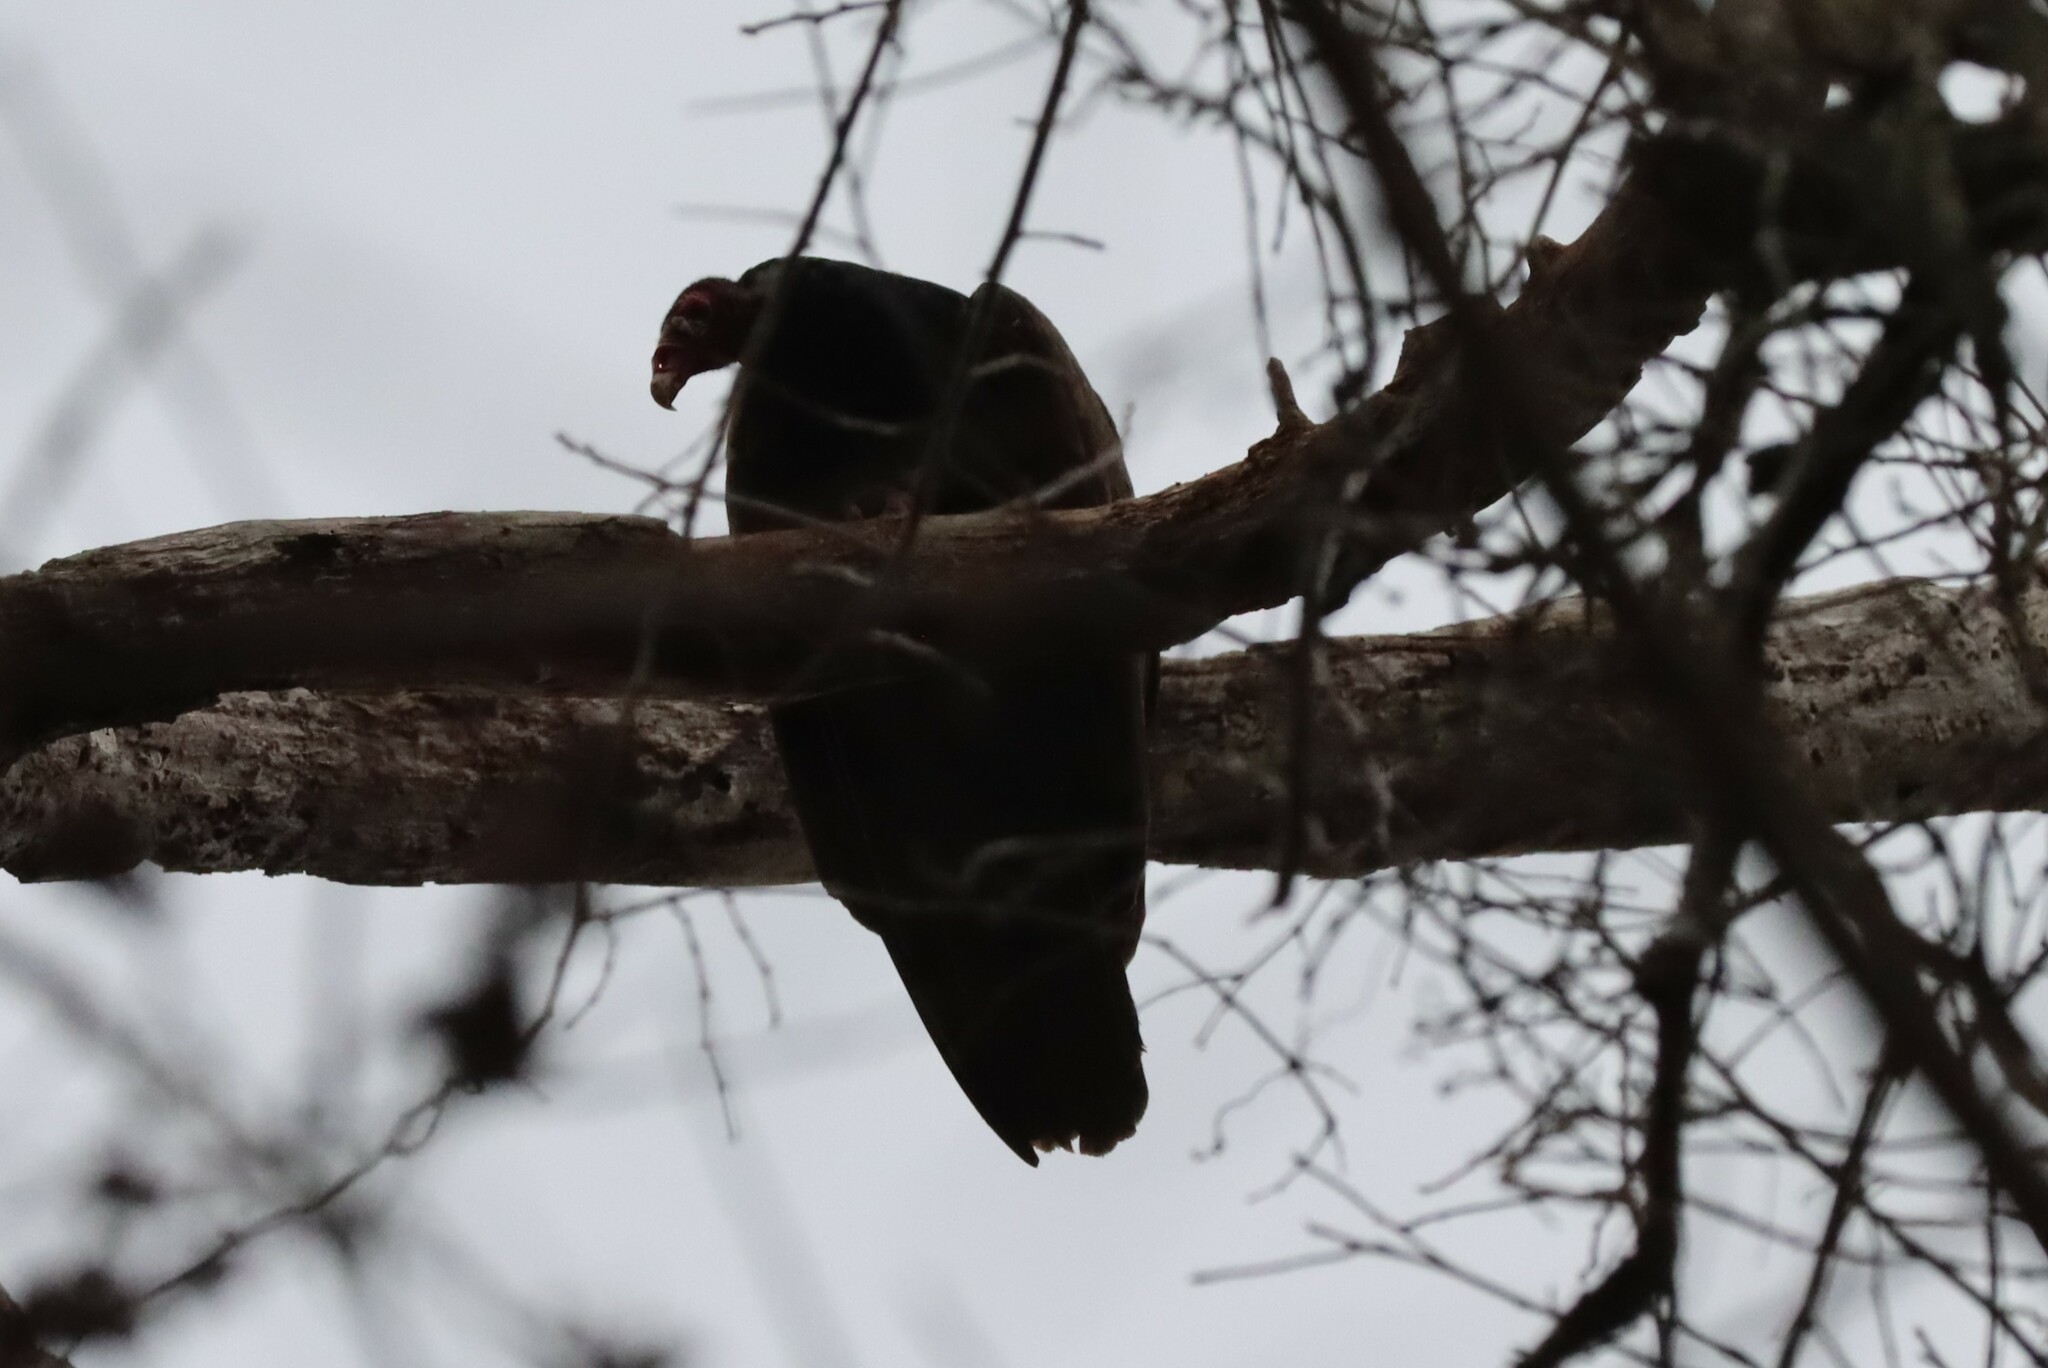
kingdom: Animalia
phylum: Chordata
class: Aves
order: Accipitriformes
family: Cathartidae
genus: Cathartes
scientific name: Cathartes aura
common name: Turkey vulture
